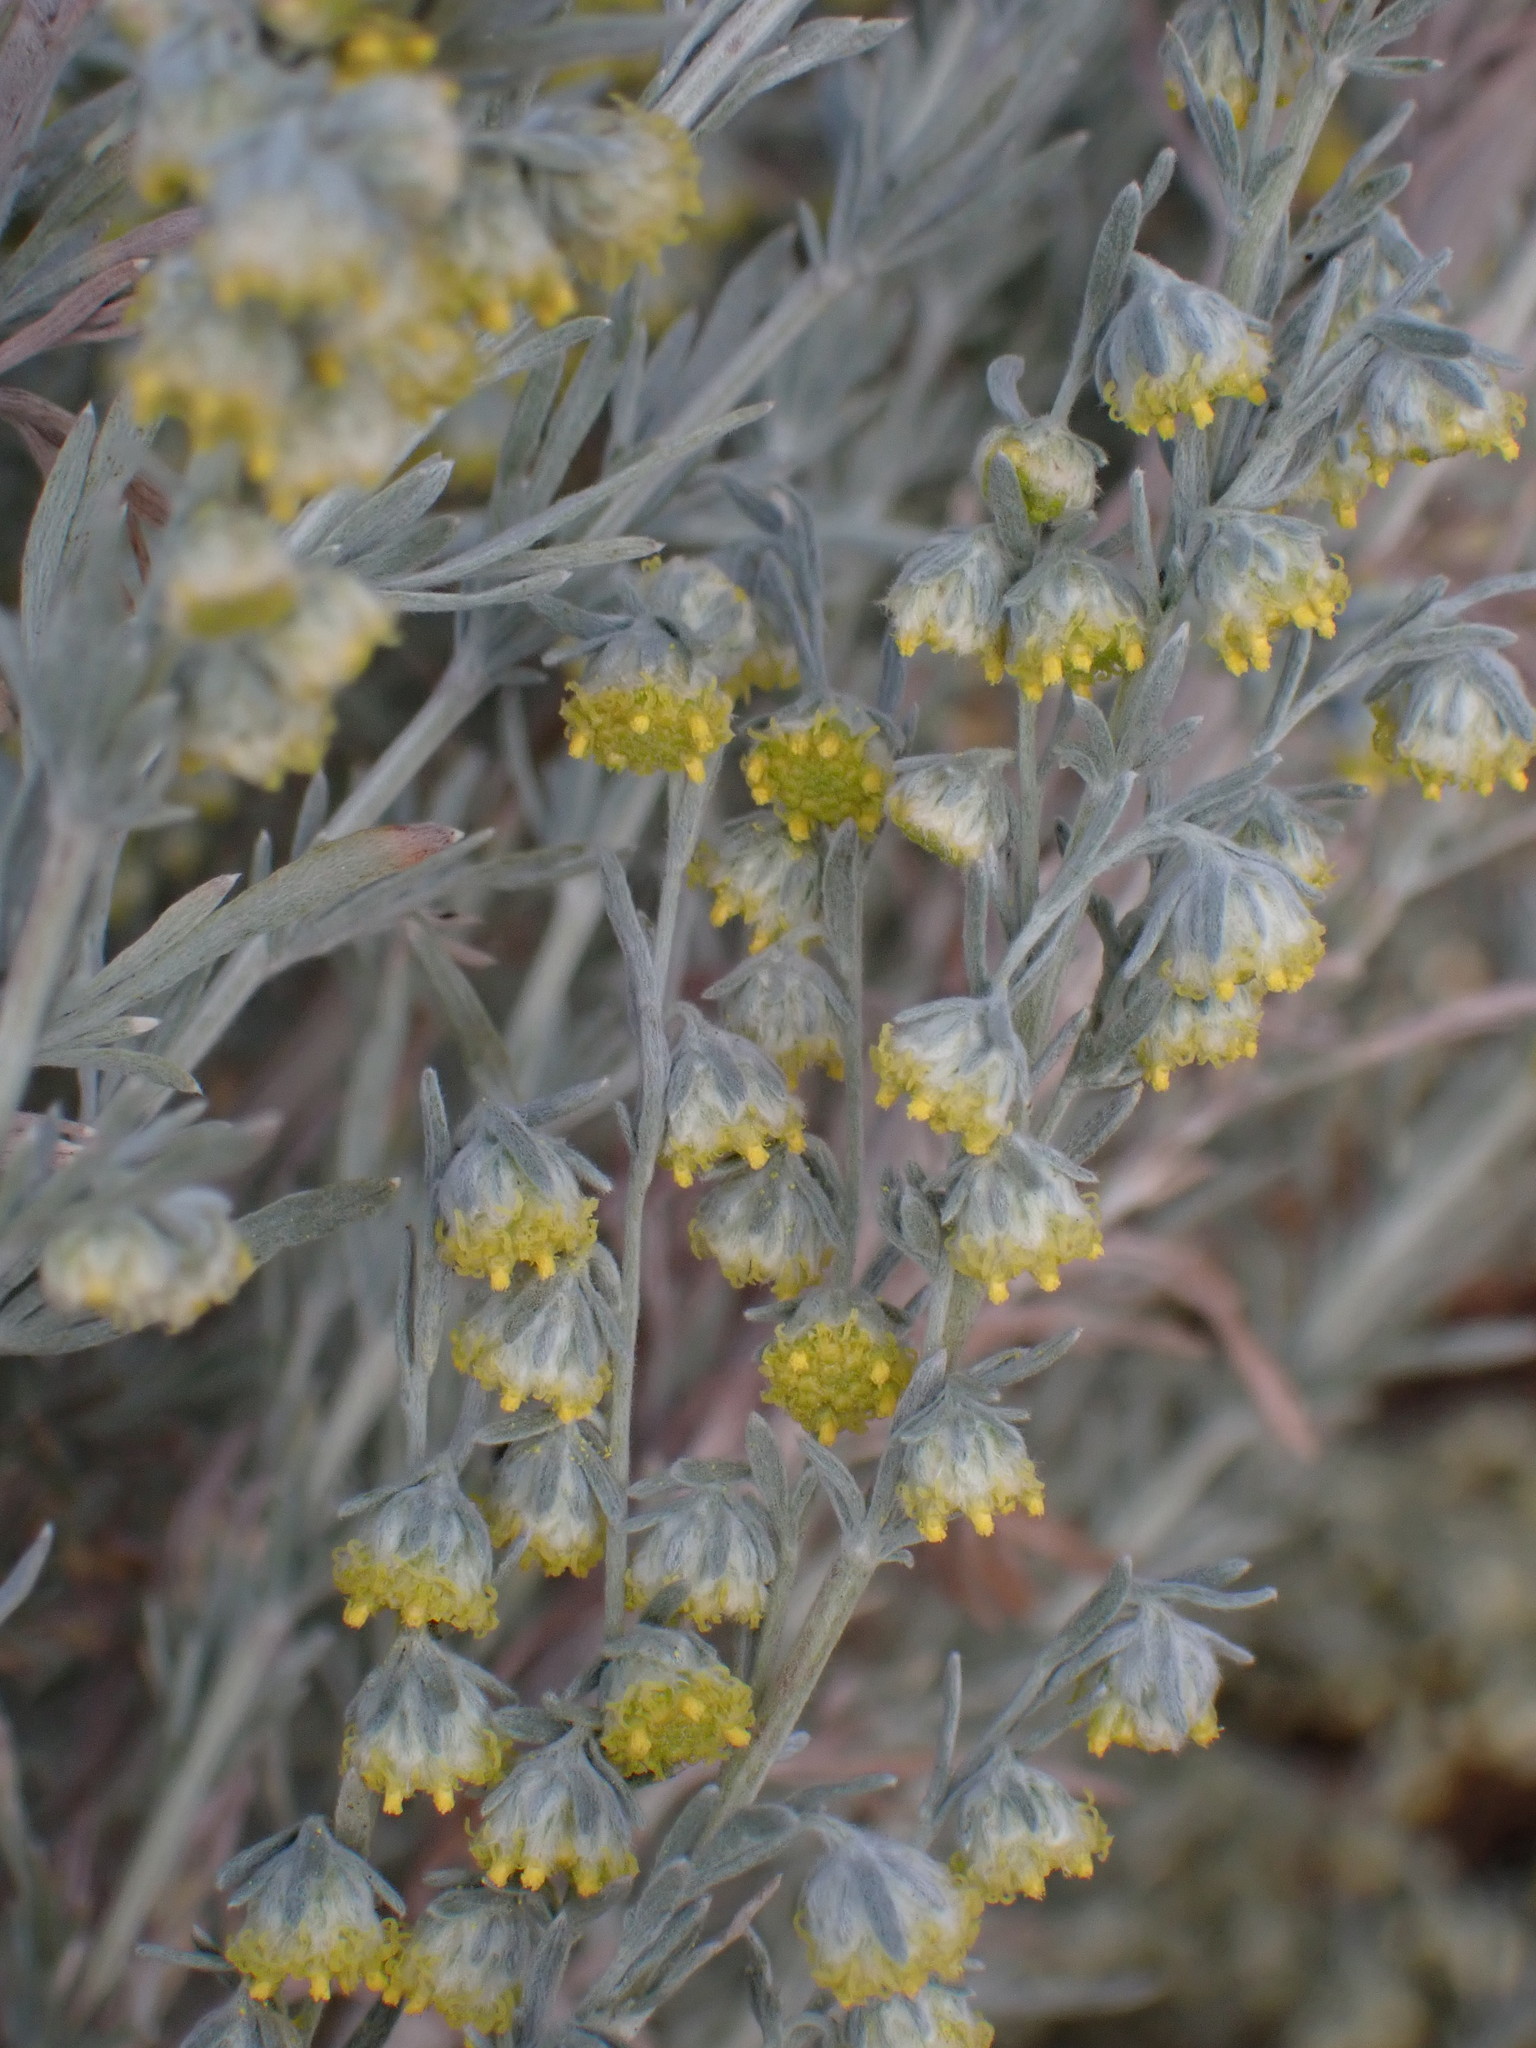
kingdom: Plantae
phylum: Tracheophyta
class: Magnoliopsida
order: Asterales
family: Asteraceae
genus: Artemisia
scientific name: Artemisia frigida
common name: Prairie sagewort
